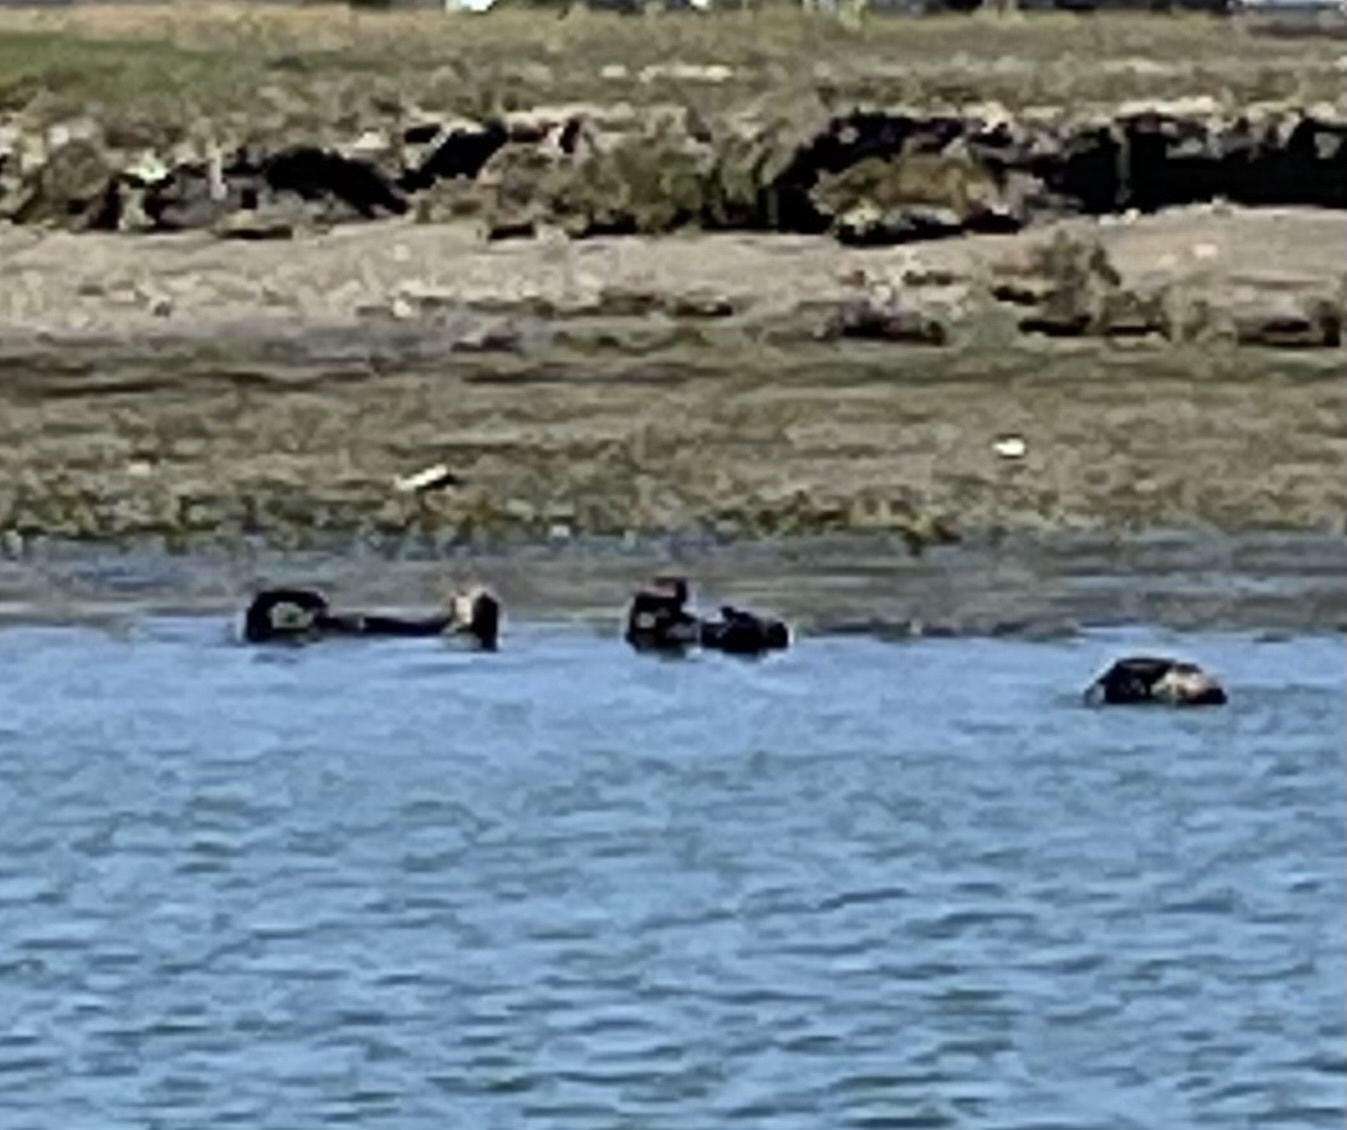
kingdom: Animalia
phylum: Chordata
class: Mammalia
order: Carnivora
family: Mustelidae
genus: Enhydra
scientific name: Enhydra lutris
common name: Sea otter
